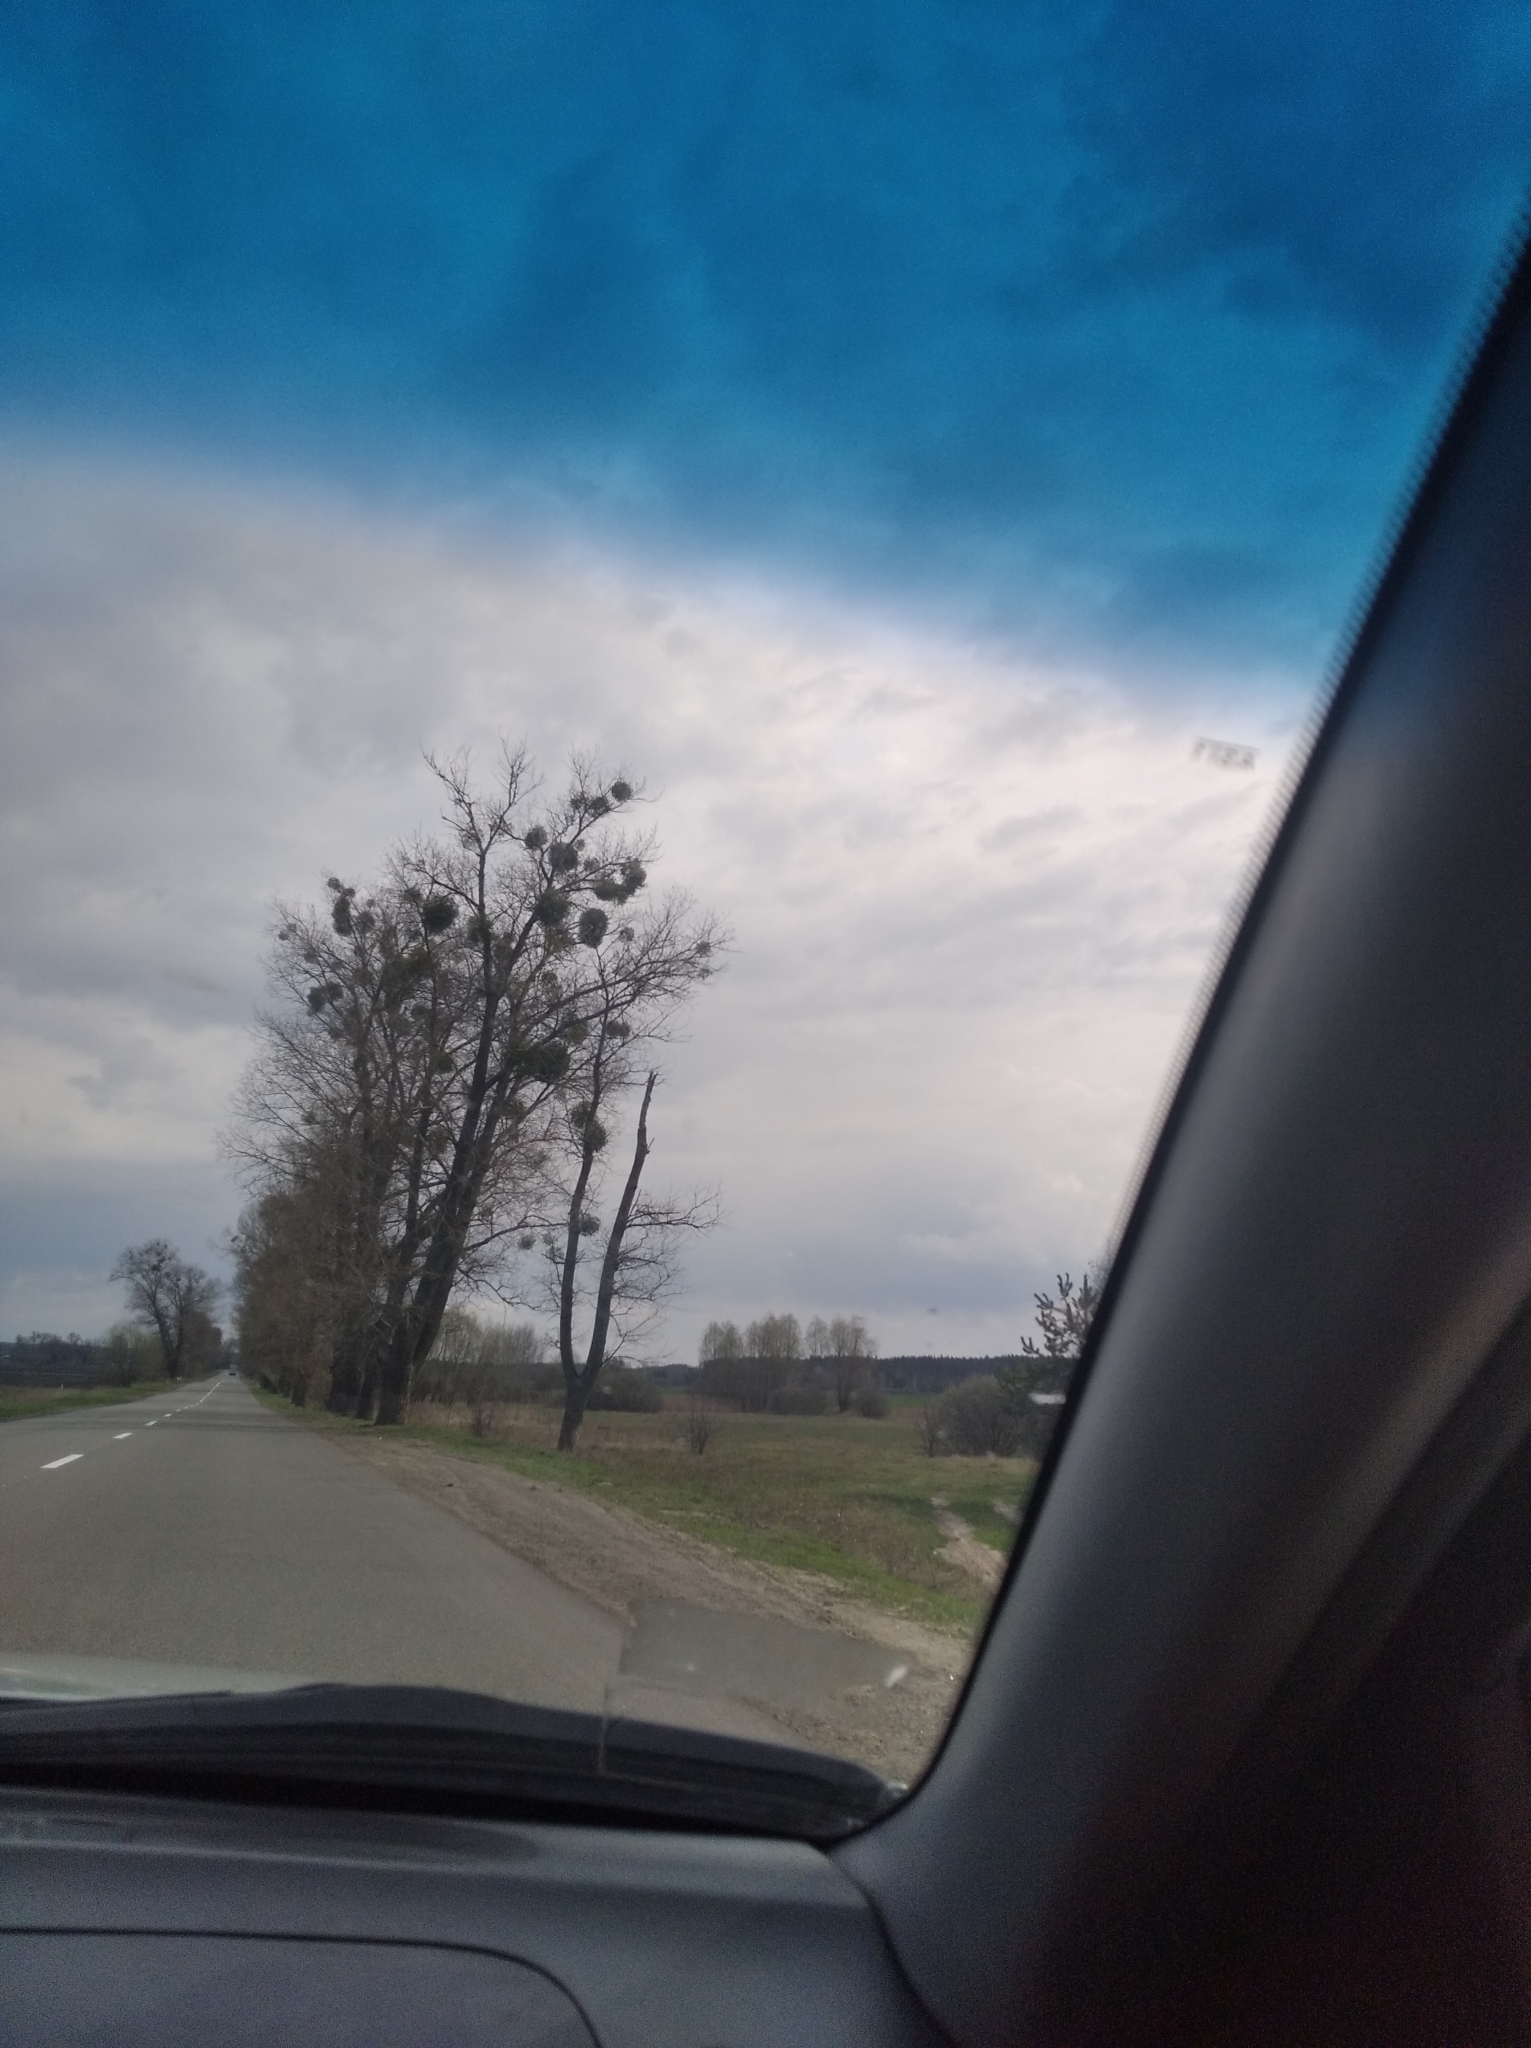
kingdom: Plantae
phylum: Tracheophyta
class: Magnoliopsida
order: Santalales
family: Viscaceae
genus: Viscum
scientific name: Viscum album
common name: Mistletoe
